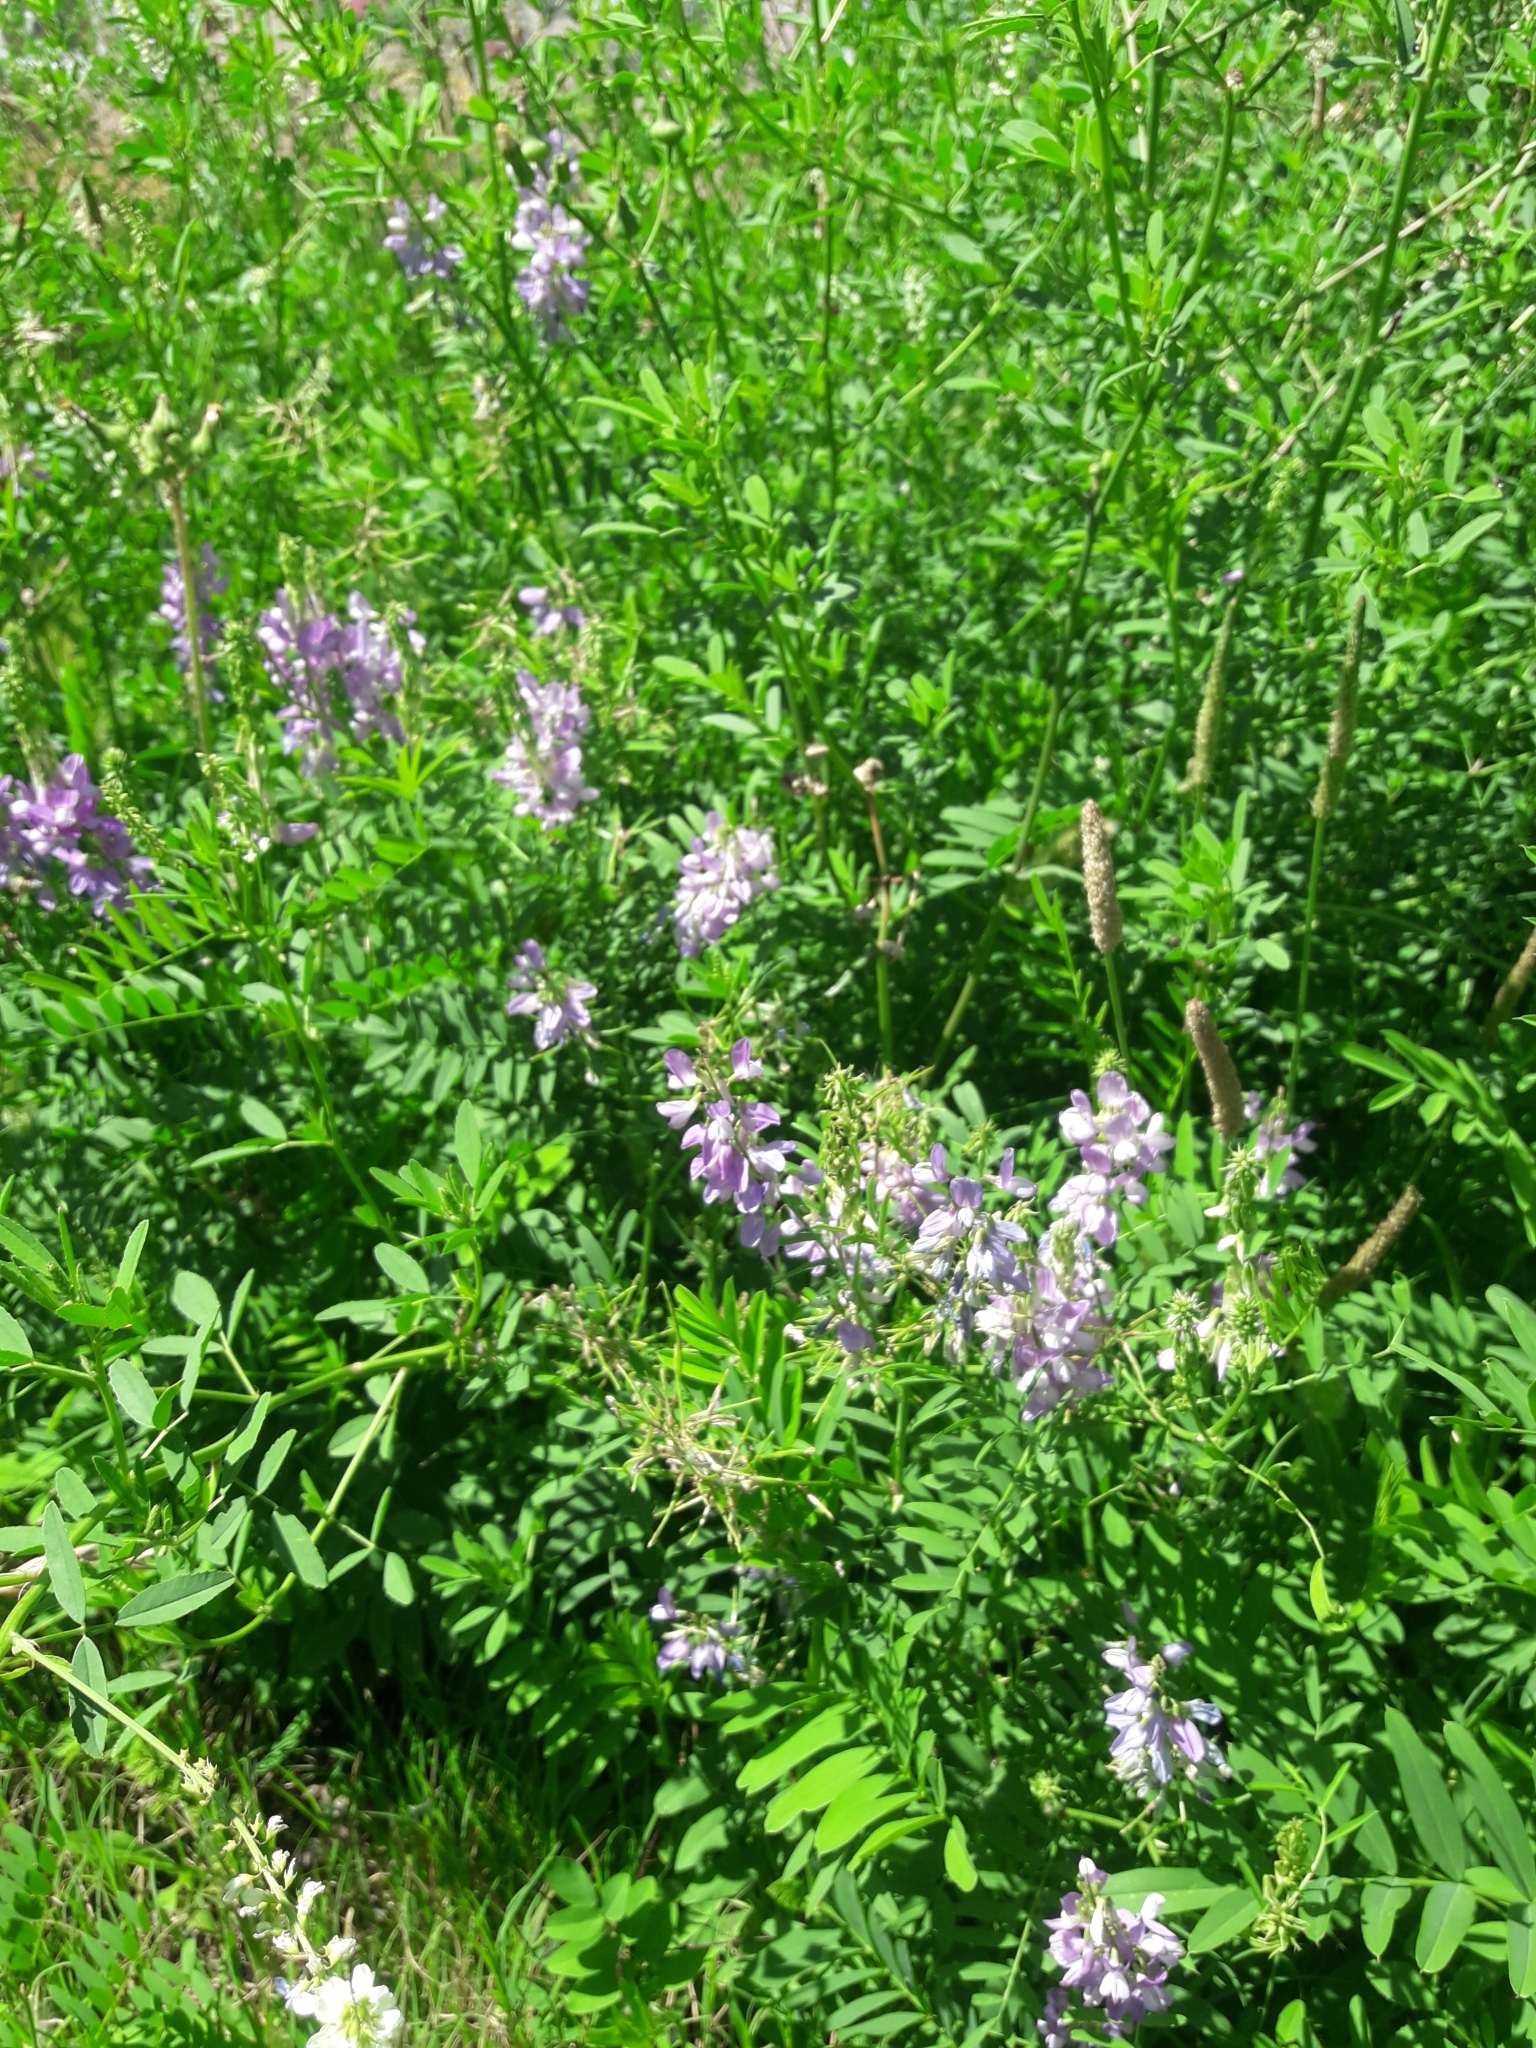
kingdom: Plantae
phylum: Tracheophyta
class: Magnoliopsida
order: Fabales
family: Fabaceae
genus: Galega
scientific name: Galega officinalis
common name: Goat's-rue
